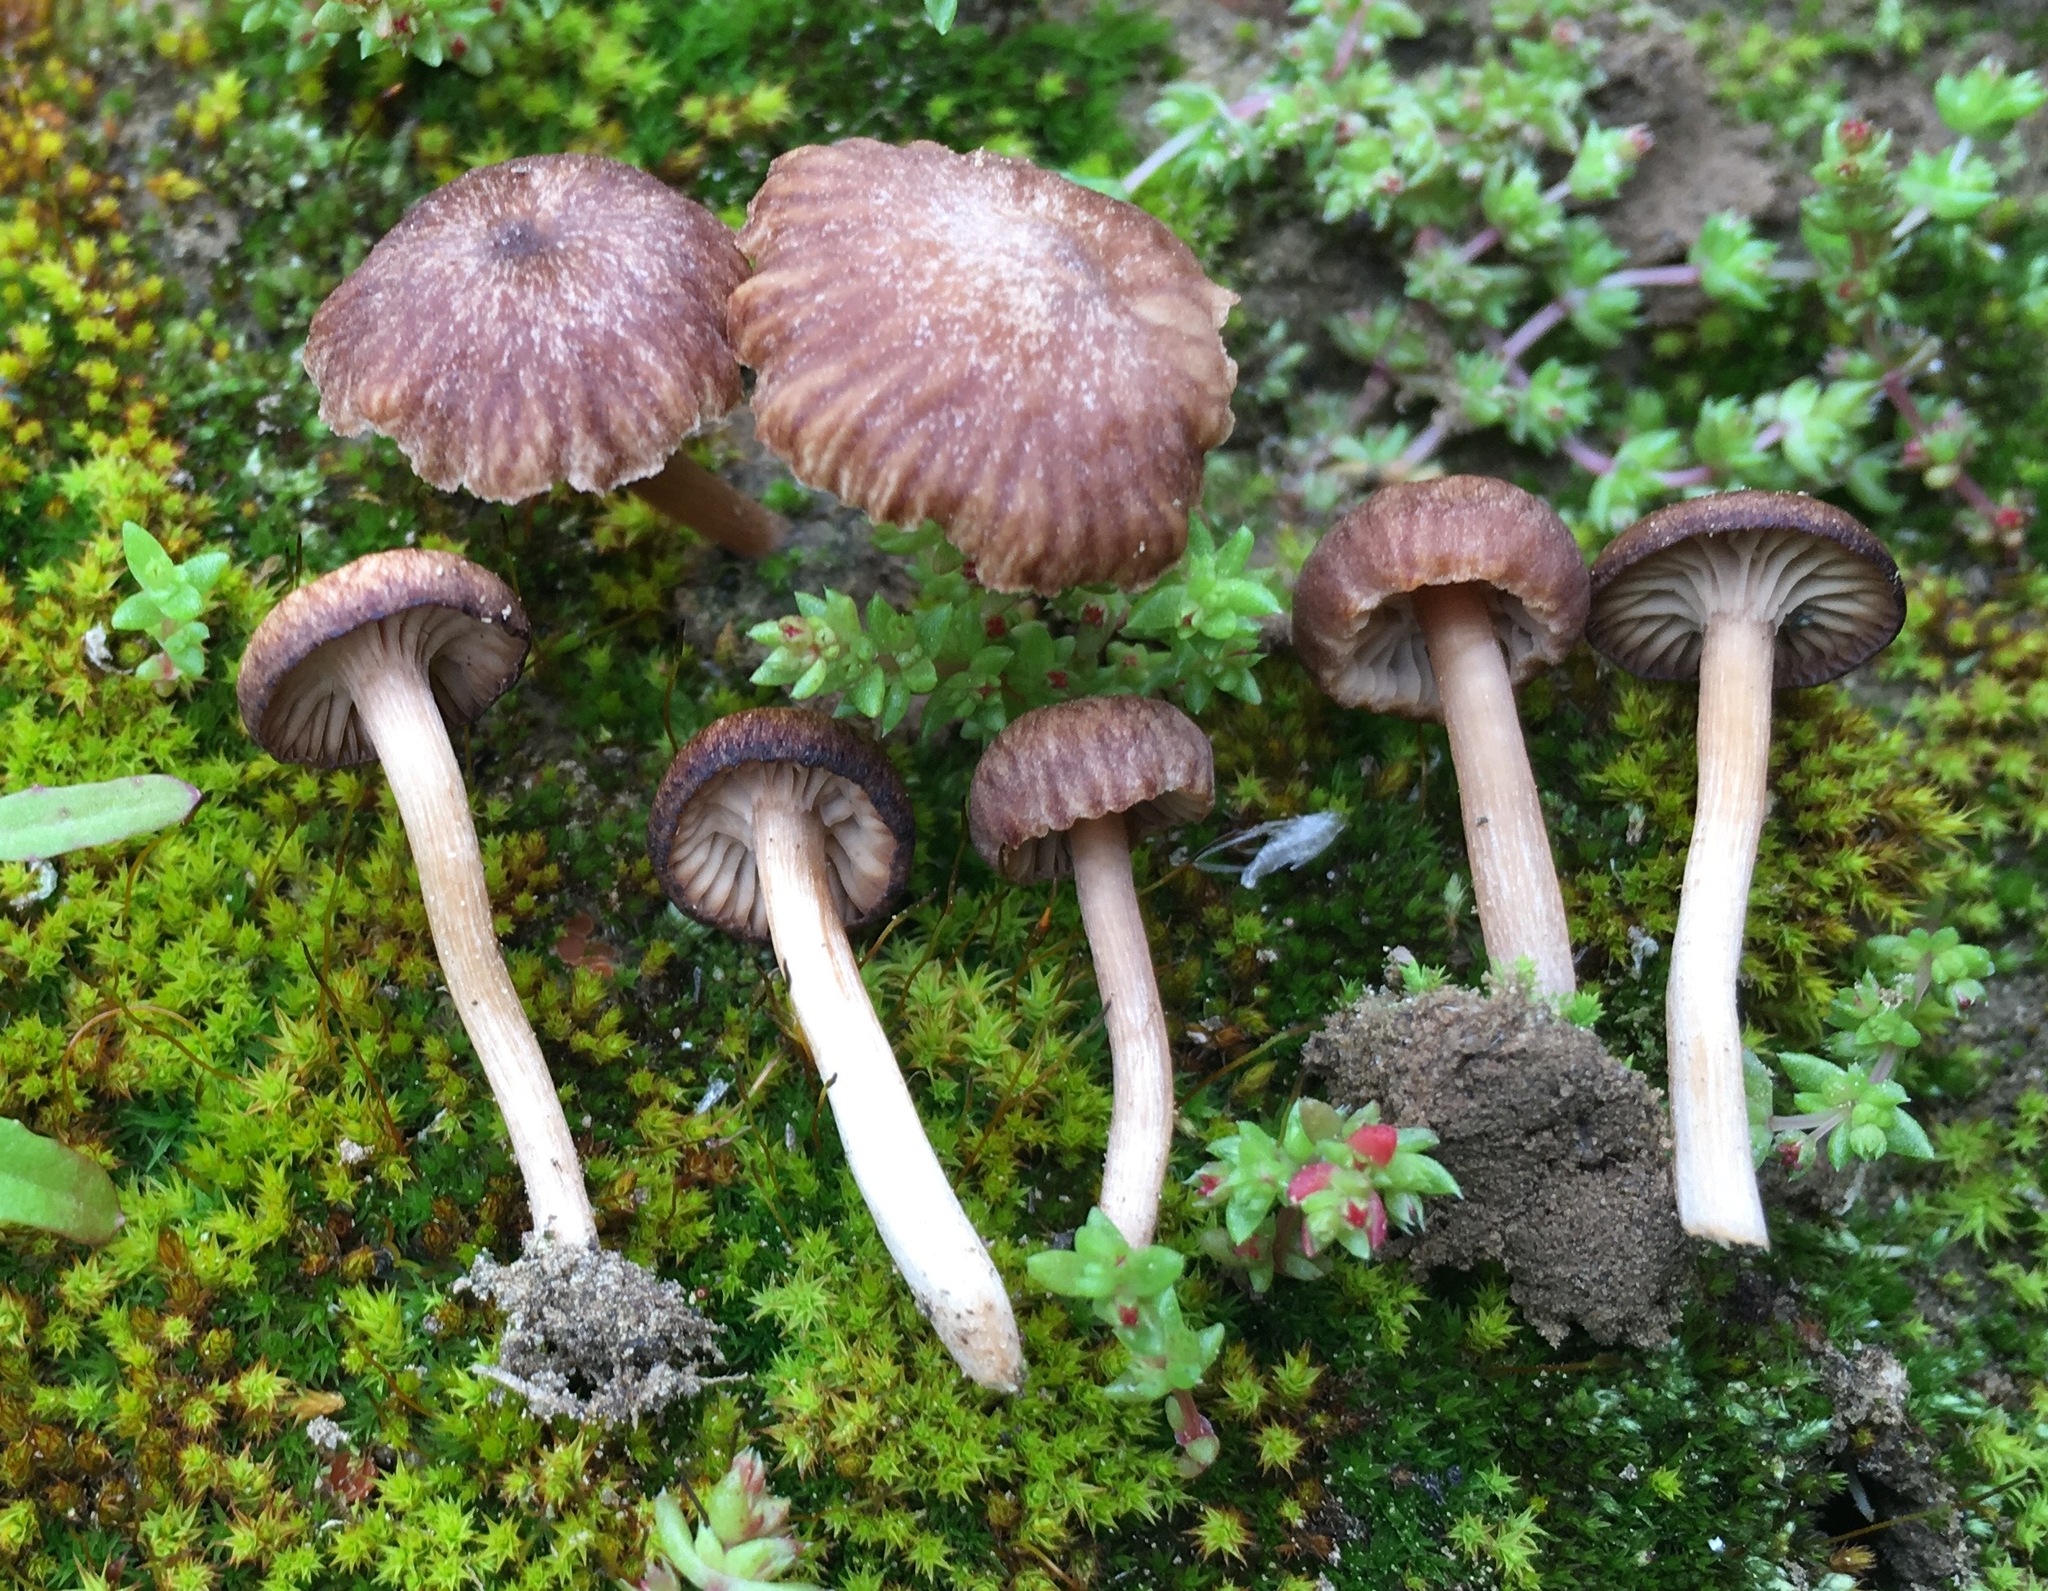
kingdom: Plantae
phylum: Tracheophyta
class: Magnoliopsida
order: Saxifragales
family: Crassulaceae
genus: Crassula
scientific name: Crassula connata
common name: Erect pygmyweed
